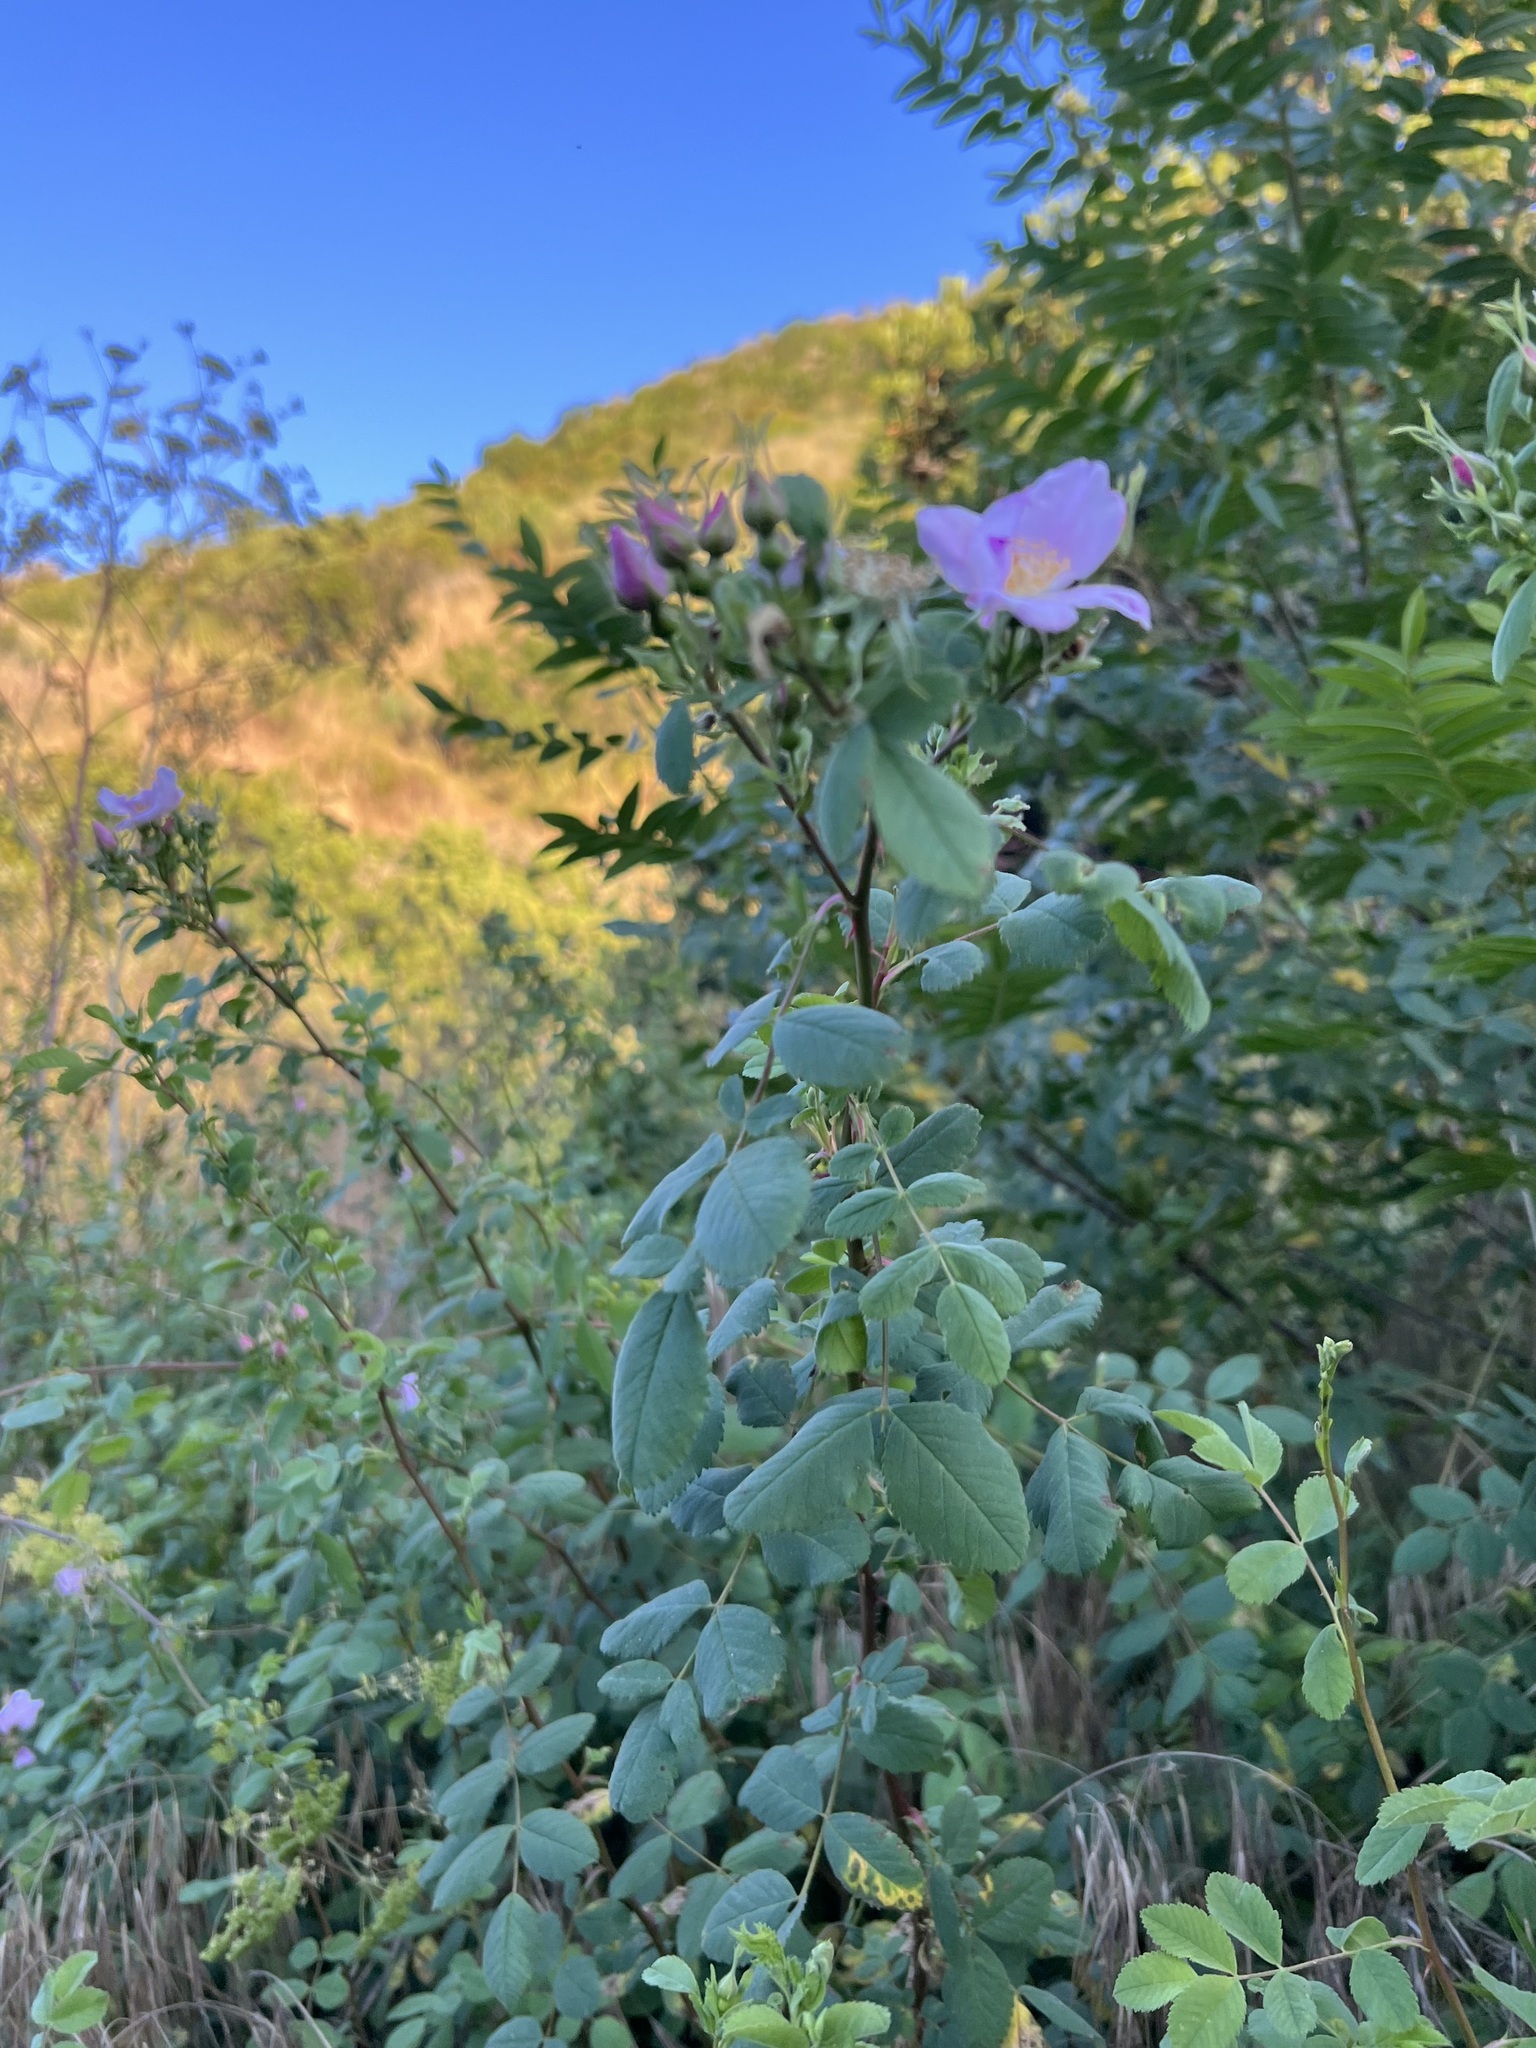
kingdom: Plantae
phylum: Tracheophyta
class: Magnoliopsida
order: Rosales
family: Rosaceae
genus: Rosa
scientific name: Rosa californica
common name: California rose
